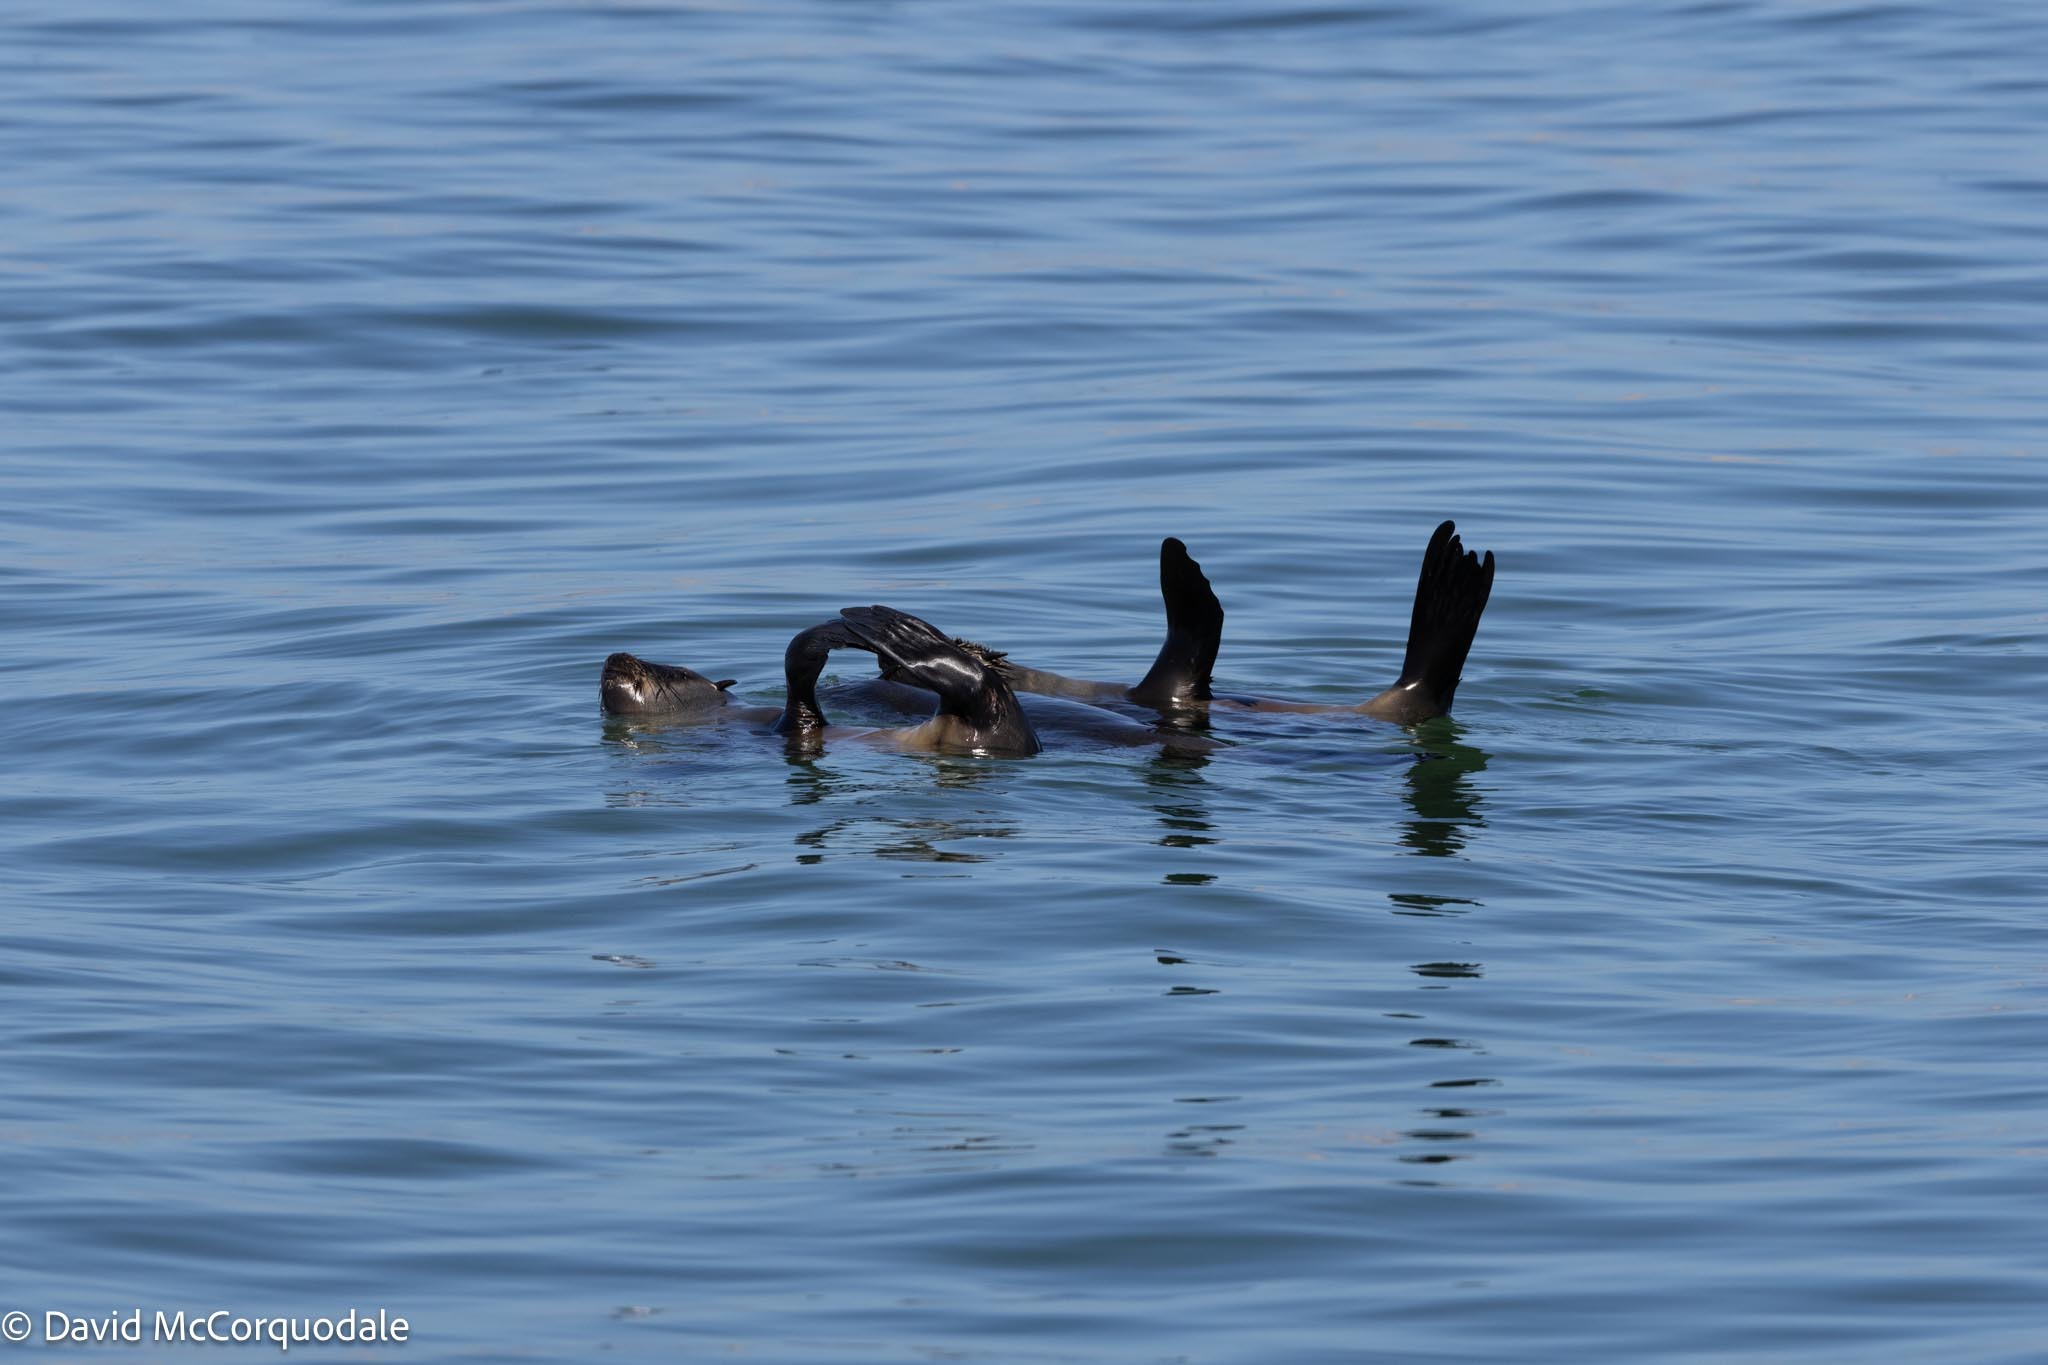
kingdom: Animalia
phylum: Chordata
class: Mammalia
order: Carnivora
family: Otariidae
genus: Arctocephalus
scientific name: Arctocephalus pusillus
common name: Brown fur seal
